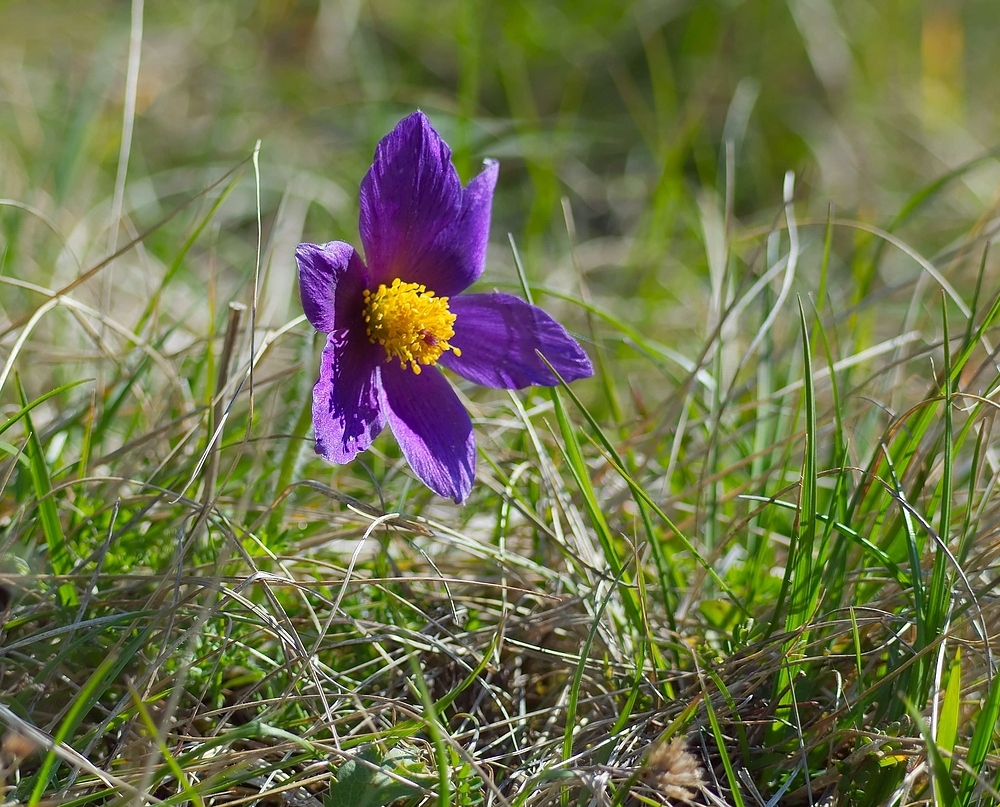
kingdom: Plantae
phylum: Tracheophyta
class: Magnoliopsida
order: Ranunculales
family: Ranunculaceae
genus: Pulsatilla
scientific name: Pulsatilla vulgaris
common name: Pasqueflower
